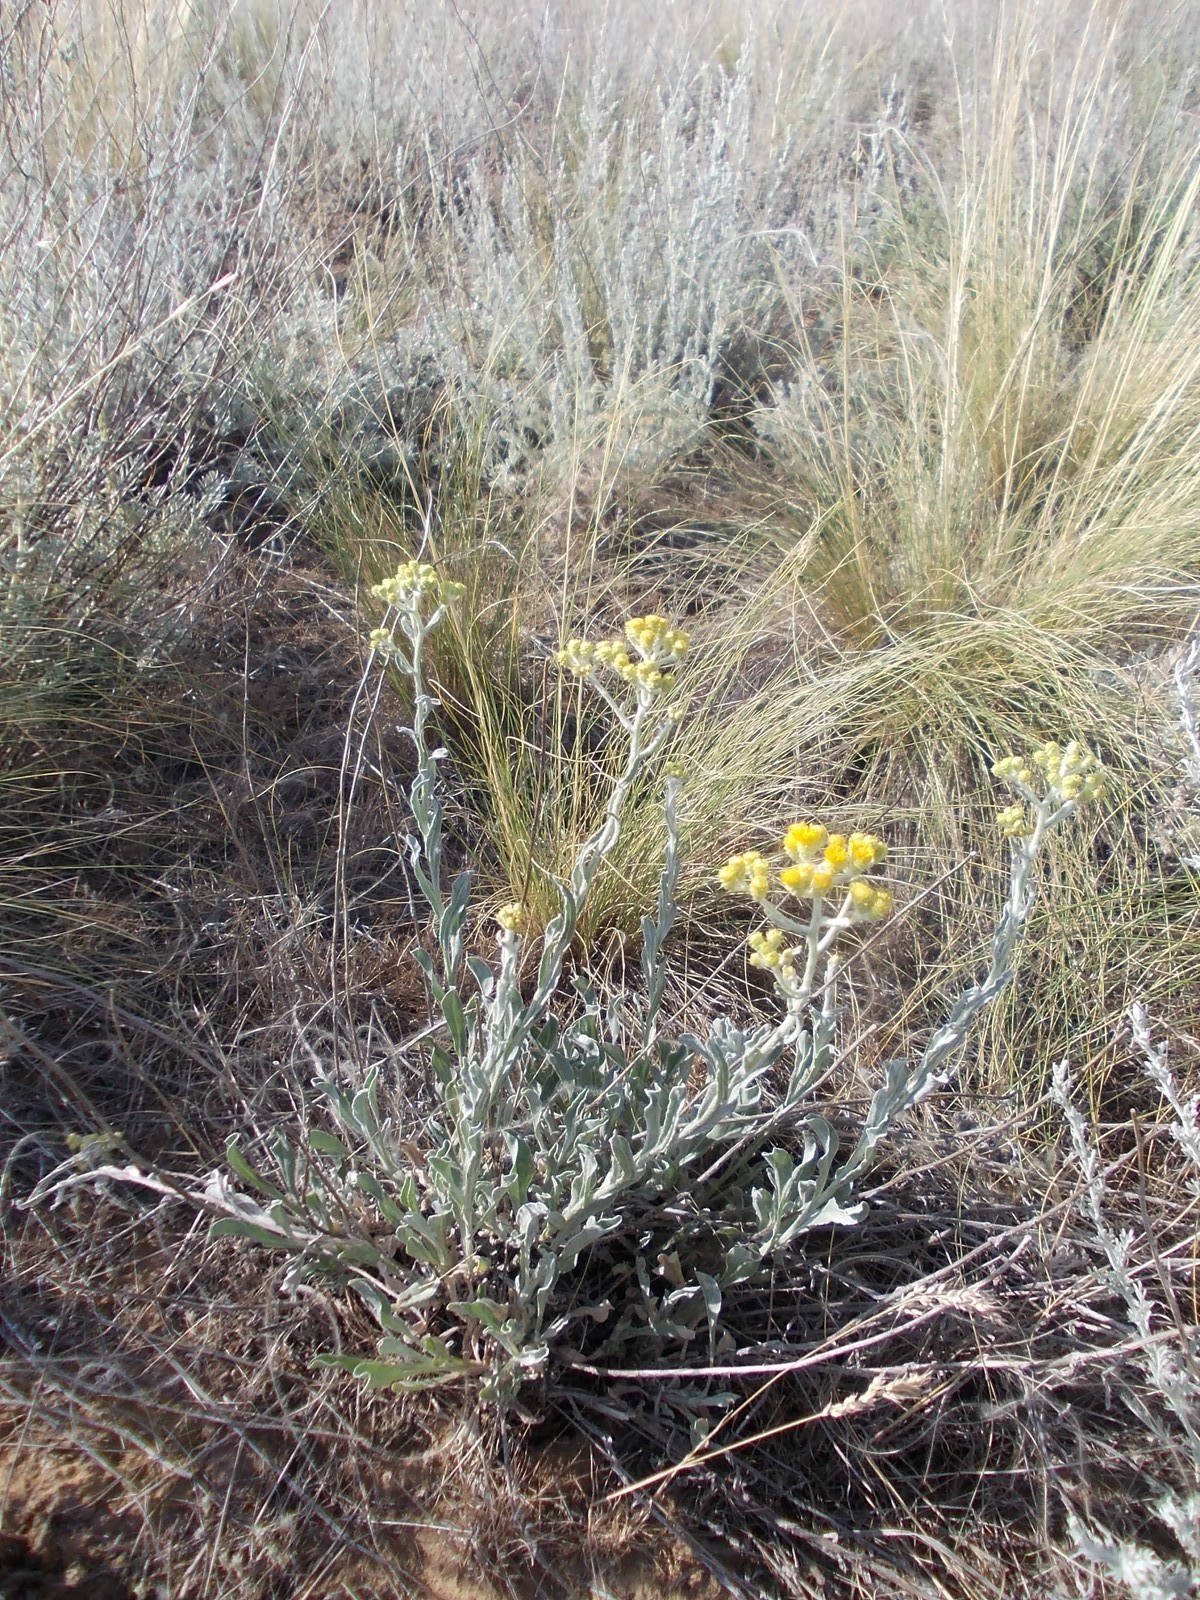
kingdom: Plantae
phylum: Tracheophyta
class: Magnoliopsida
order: Asterales
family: Asteraceae
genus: Helichrysum
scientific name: Helichrysum arenarium
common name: Strawflower
